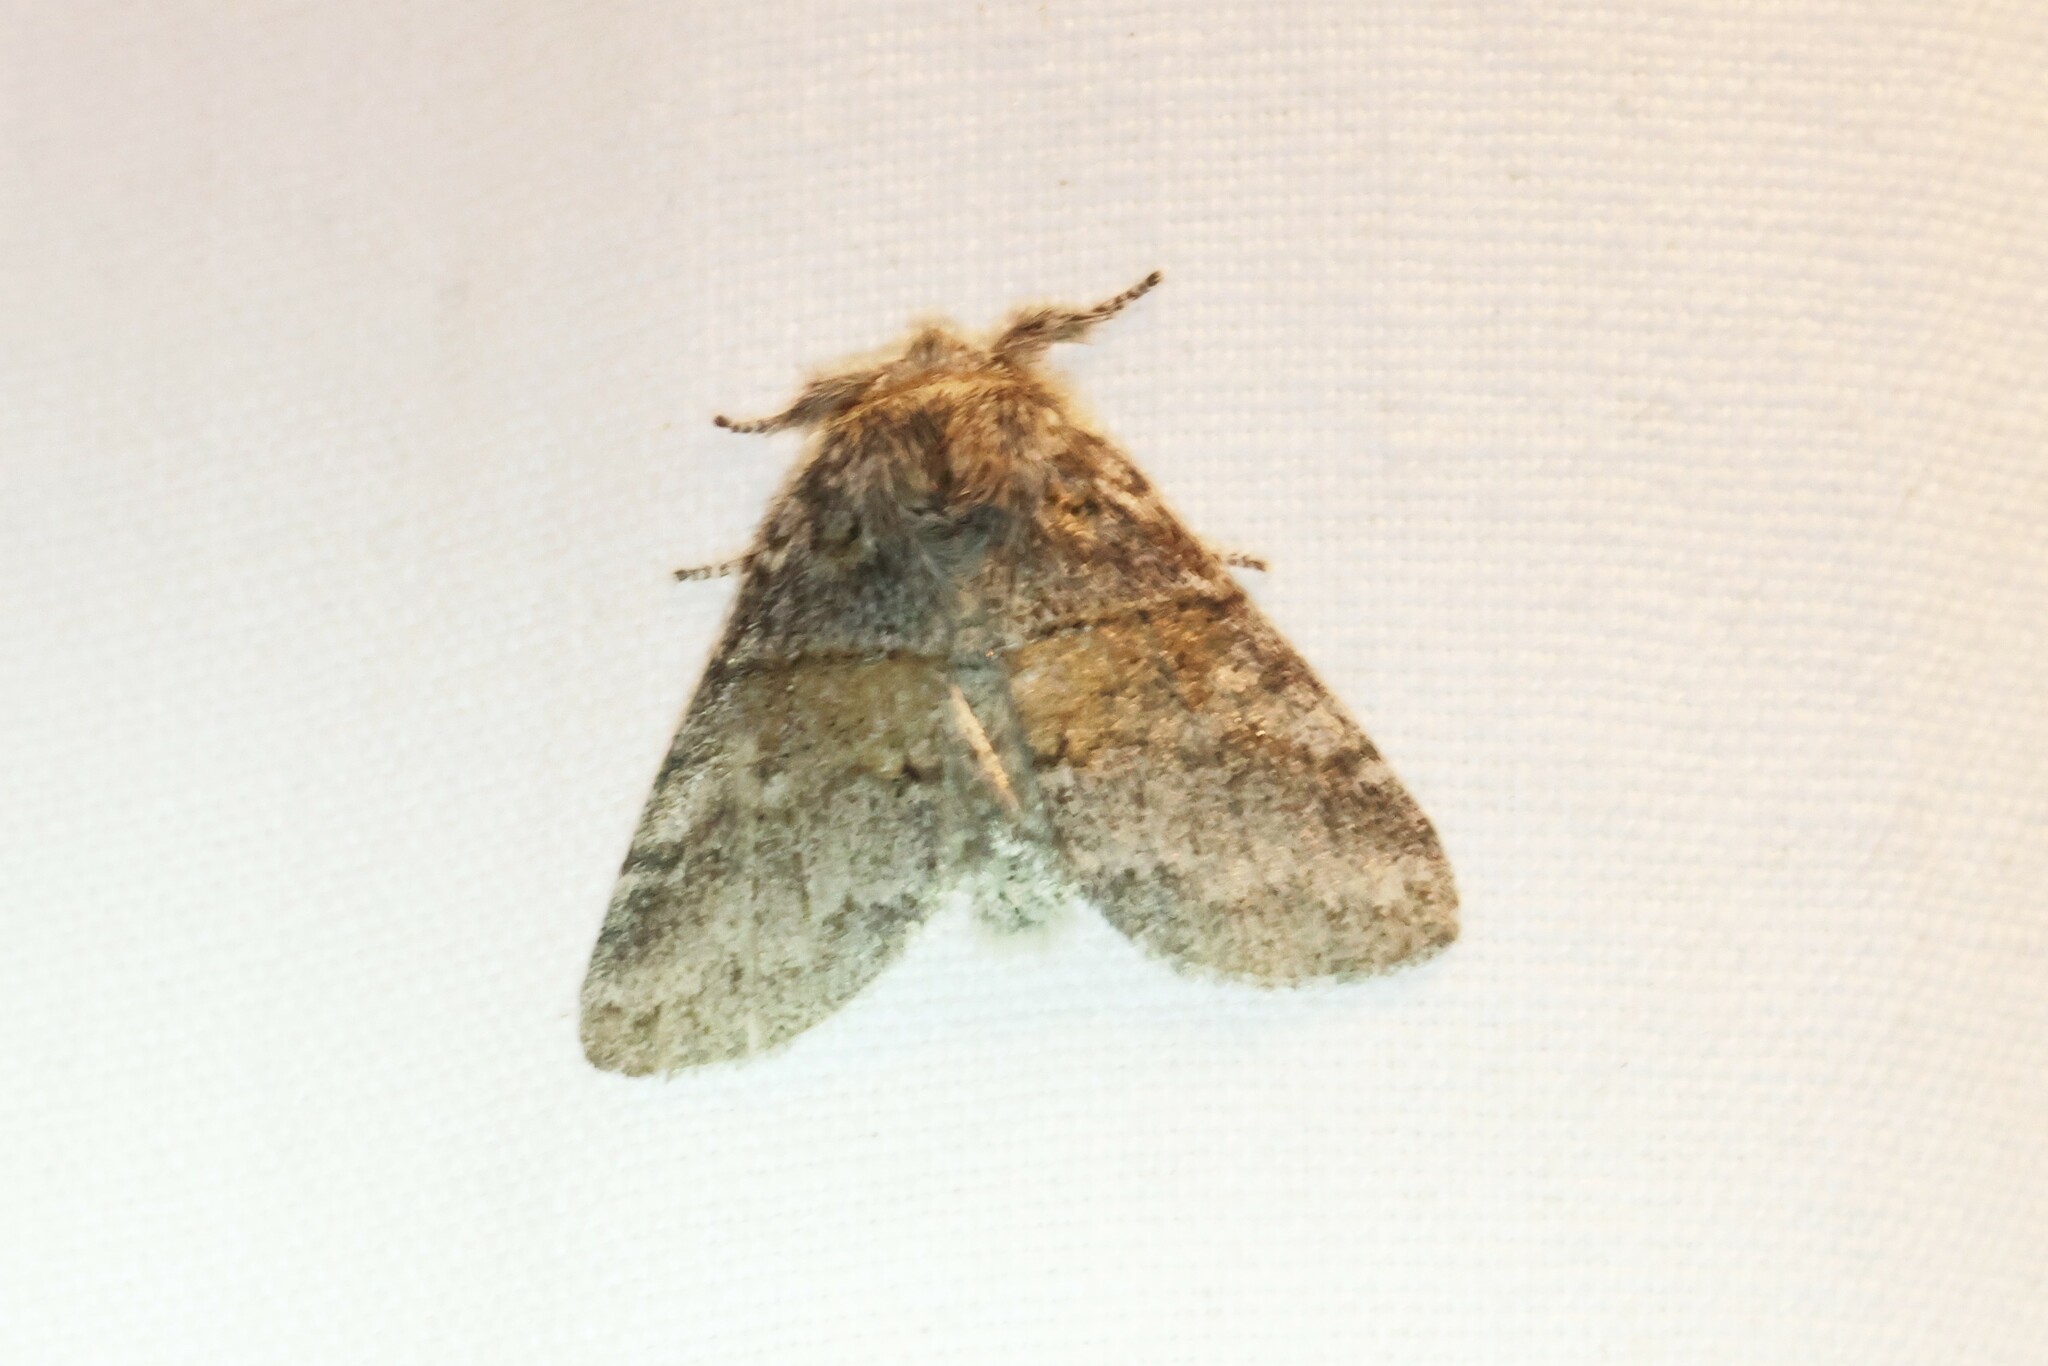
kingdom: Animalia
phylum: Arthropoda
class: Insecta
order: Lepidoptera
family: Notodontidae
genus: Gluphisia
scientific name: Gluphisia septentrionis
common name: Common gluphisia
